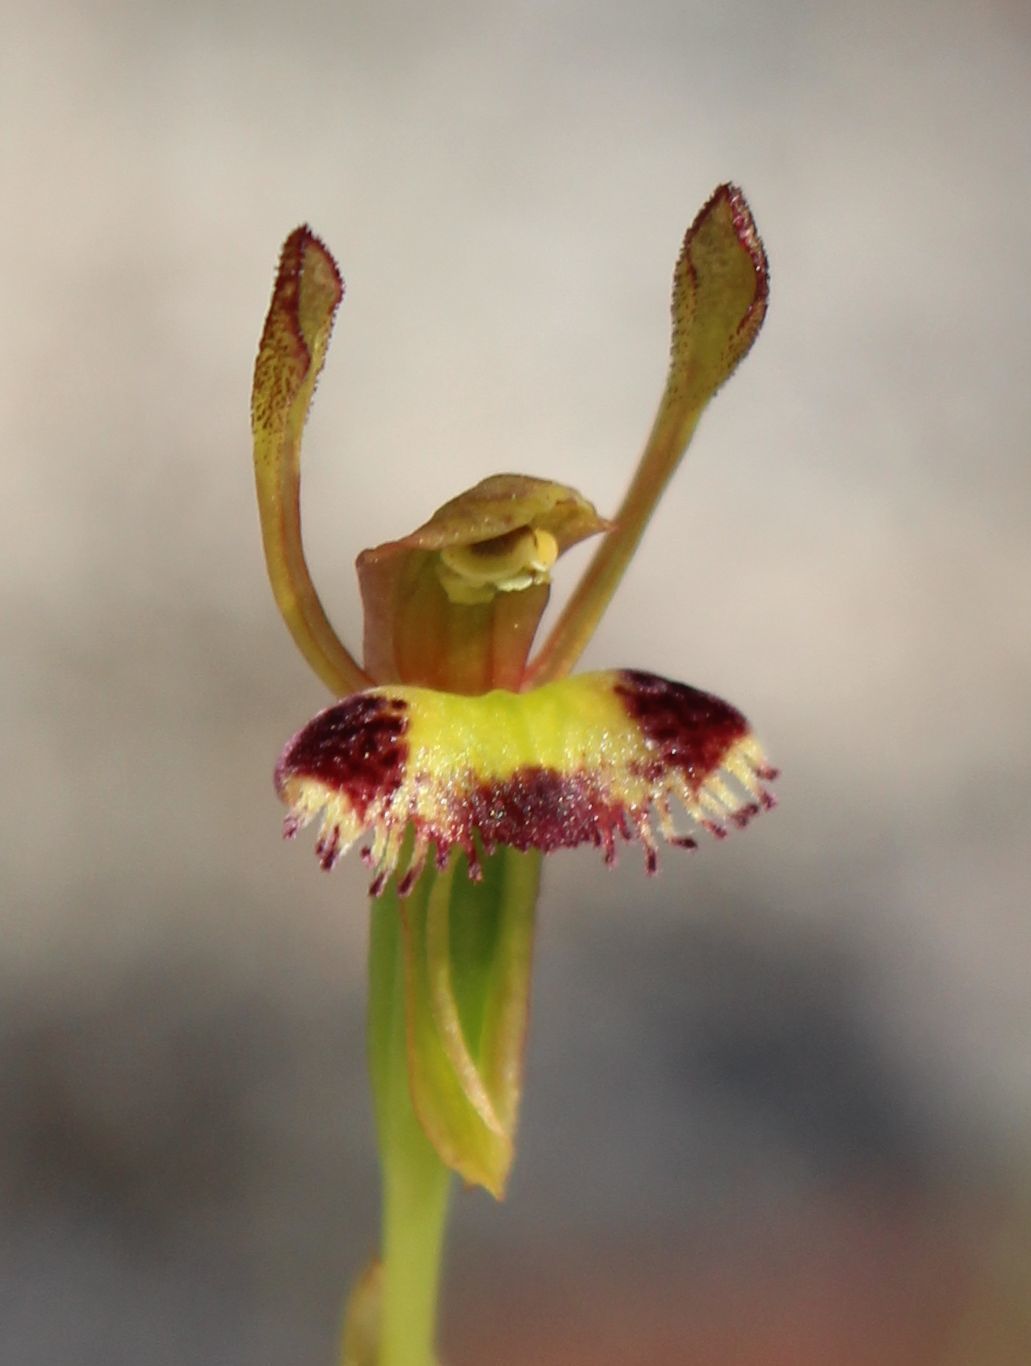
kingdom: Plantae
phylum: Tracheophyta
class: Liliopsida
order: Asparagales
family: Orchidaceae
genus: Leporella
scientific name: Leporella fimbriata
